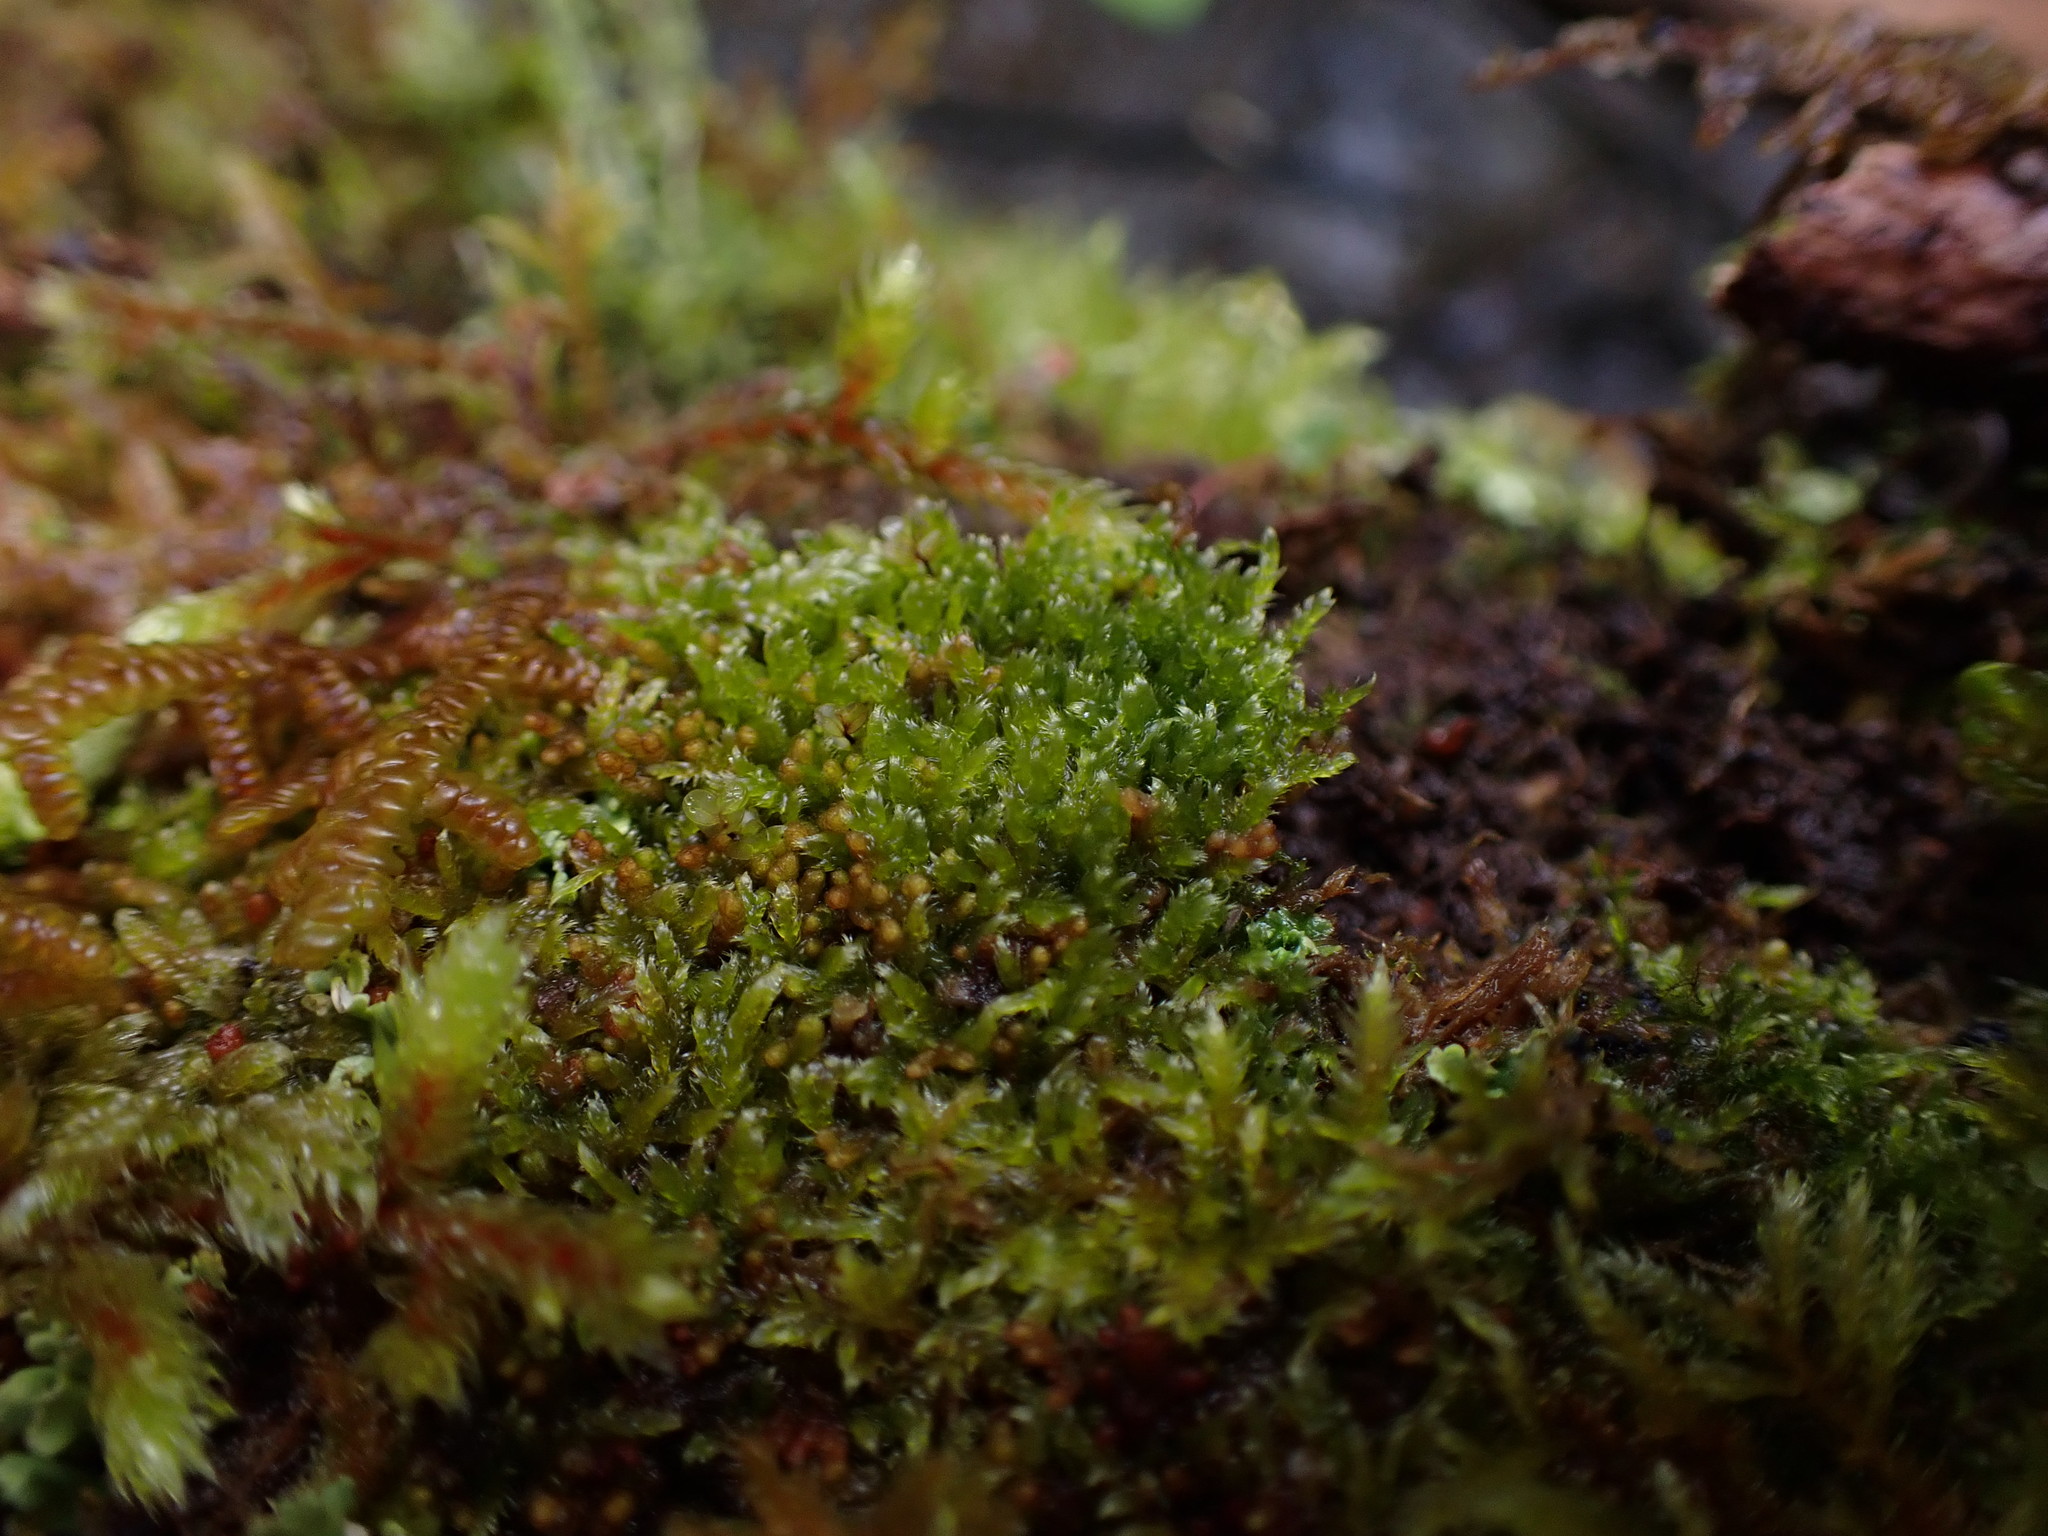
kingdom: Plantae
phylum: Bryophyta
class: Bryopsida
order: Hypnales
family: Pylaisiadelphaceae
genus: Brotherella
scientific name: Brotherella fauriei
